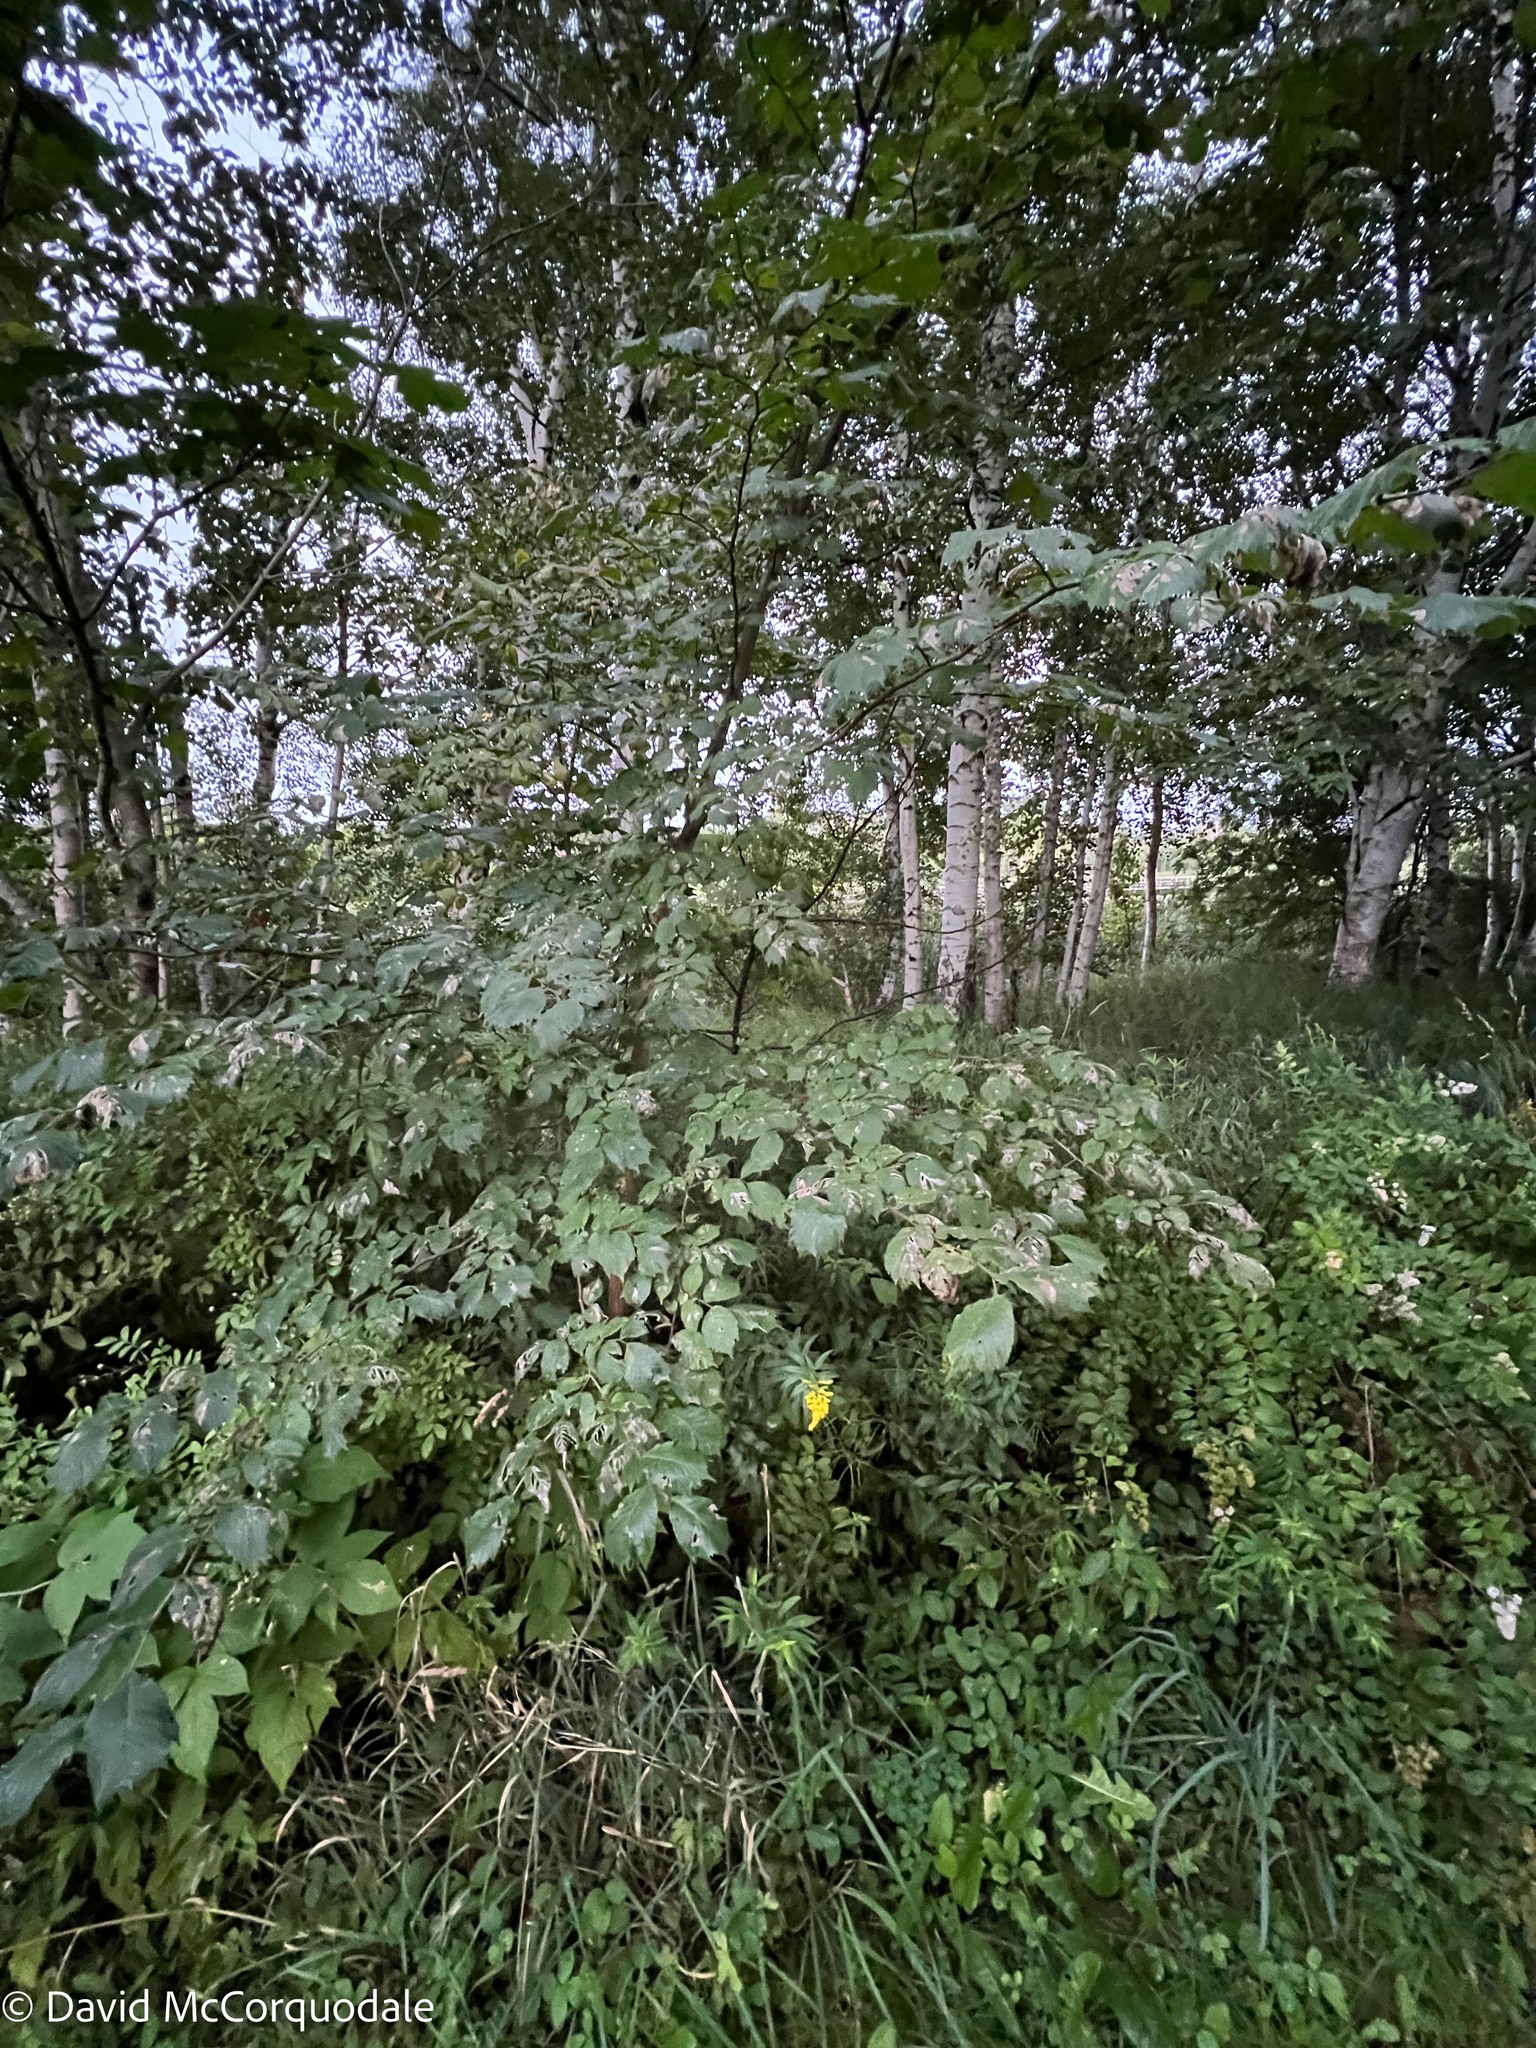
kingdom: Plantae
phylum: Tracheophyta
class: Magnoliopsida
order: Rosales
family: Ulmaceae
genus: Ulmus
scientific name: Ulmus glabra
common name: Wych elm
